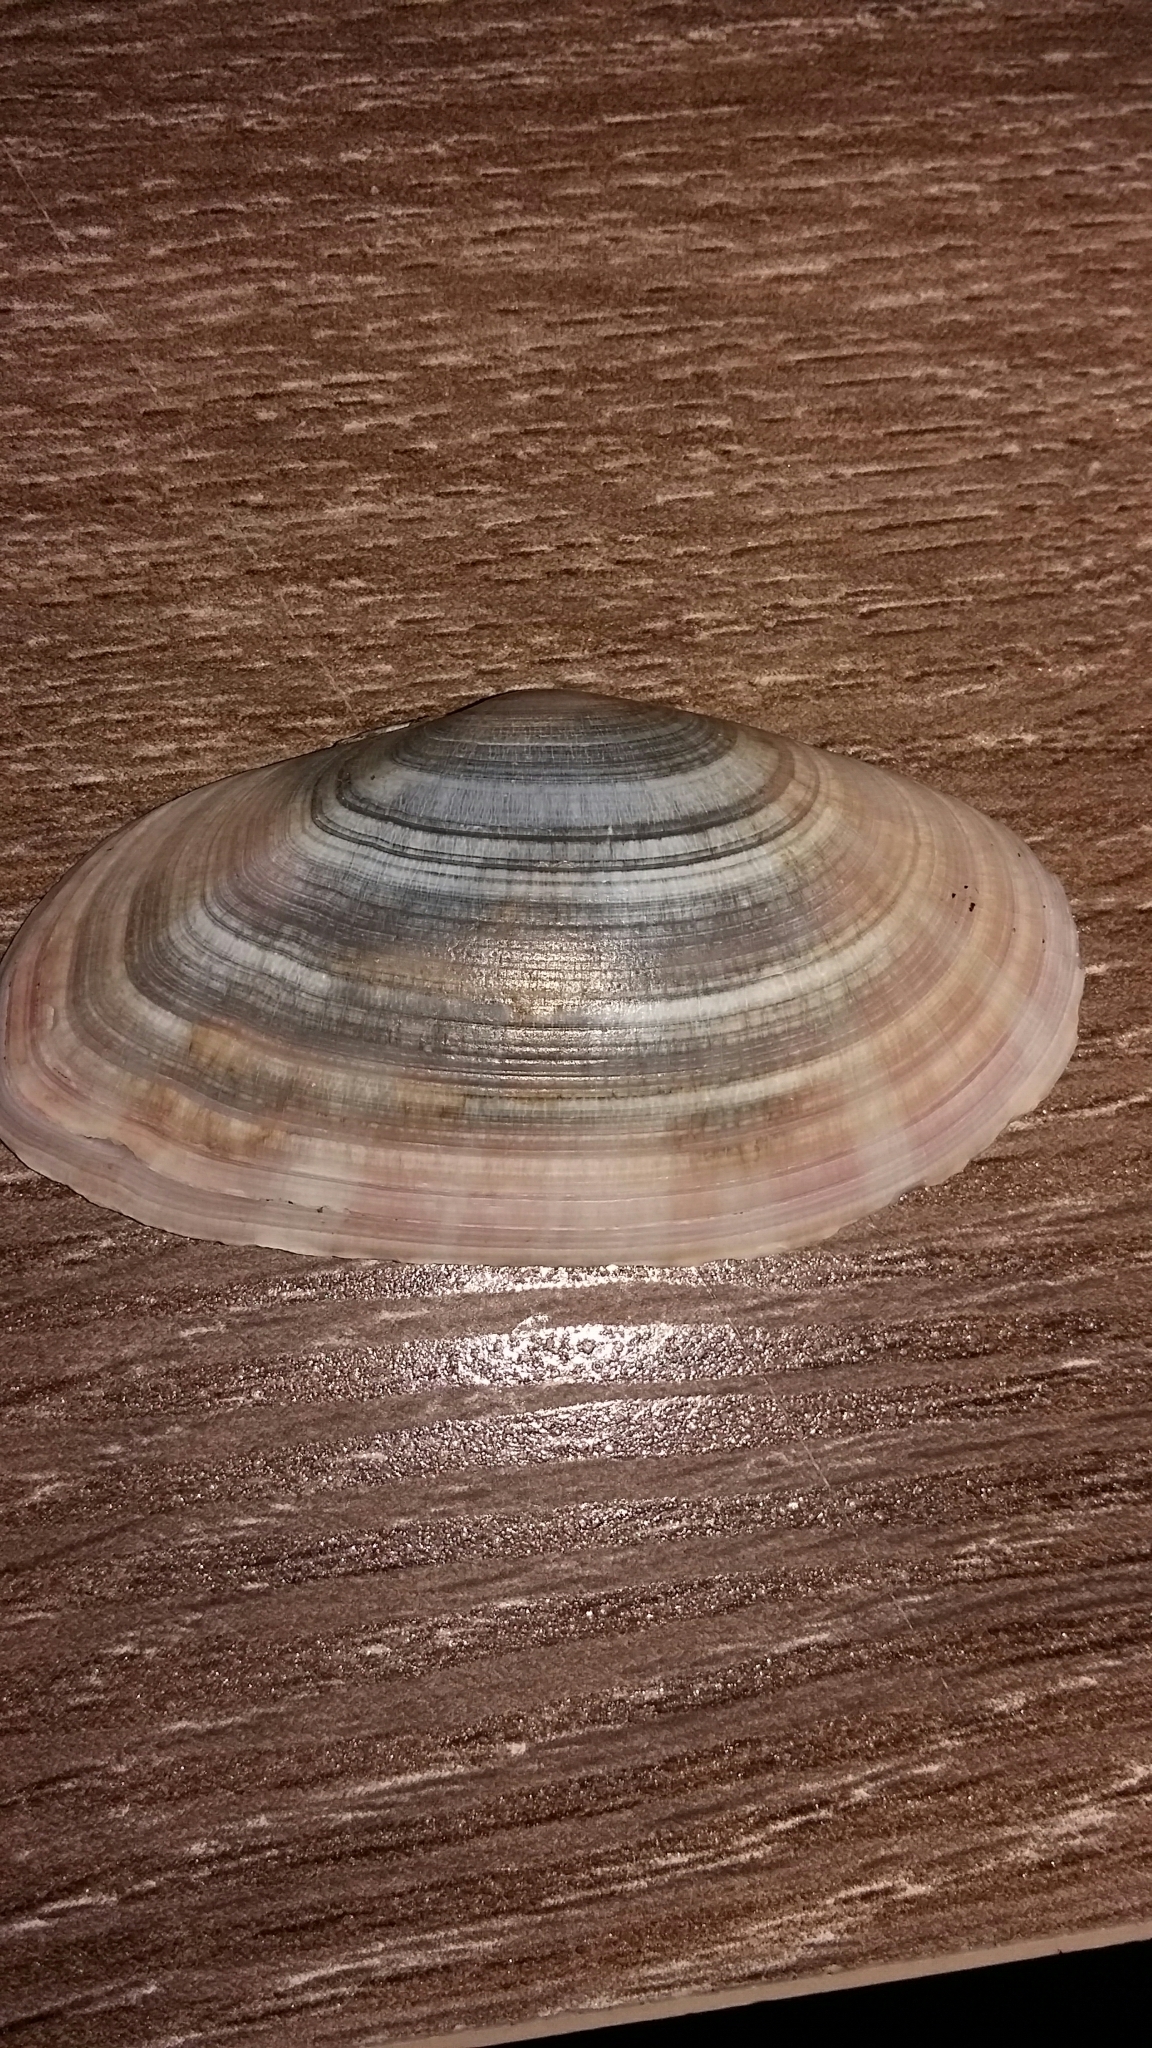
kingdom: Animalia
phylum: Mollusca
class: Bivalvia
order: Cardiida
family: Psammobiidae
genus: Gari
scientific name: Gari convexa
